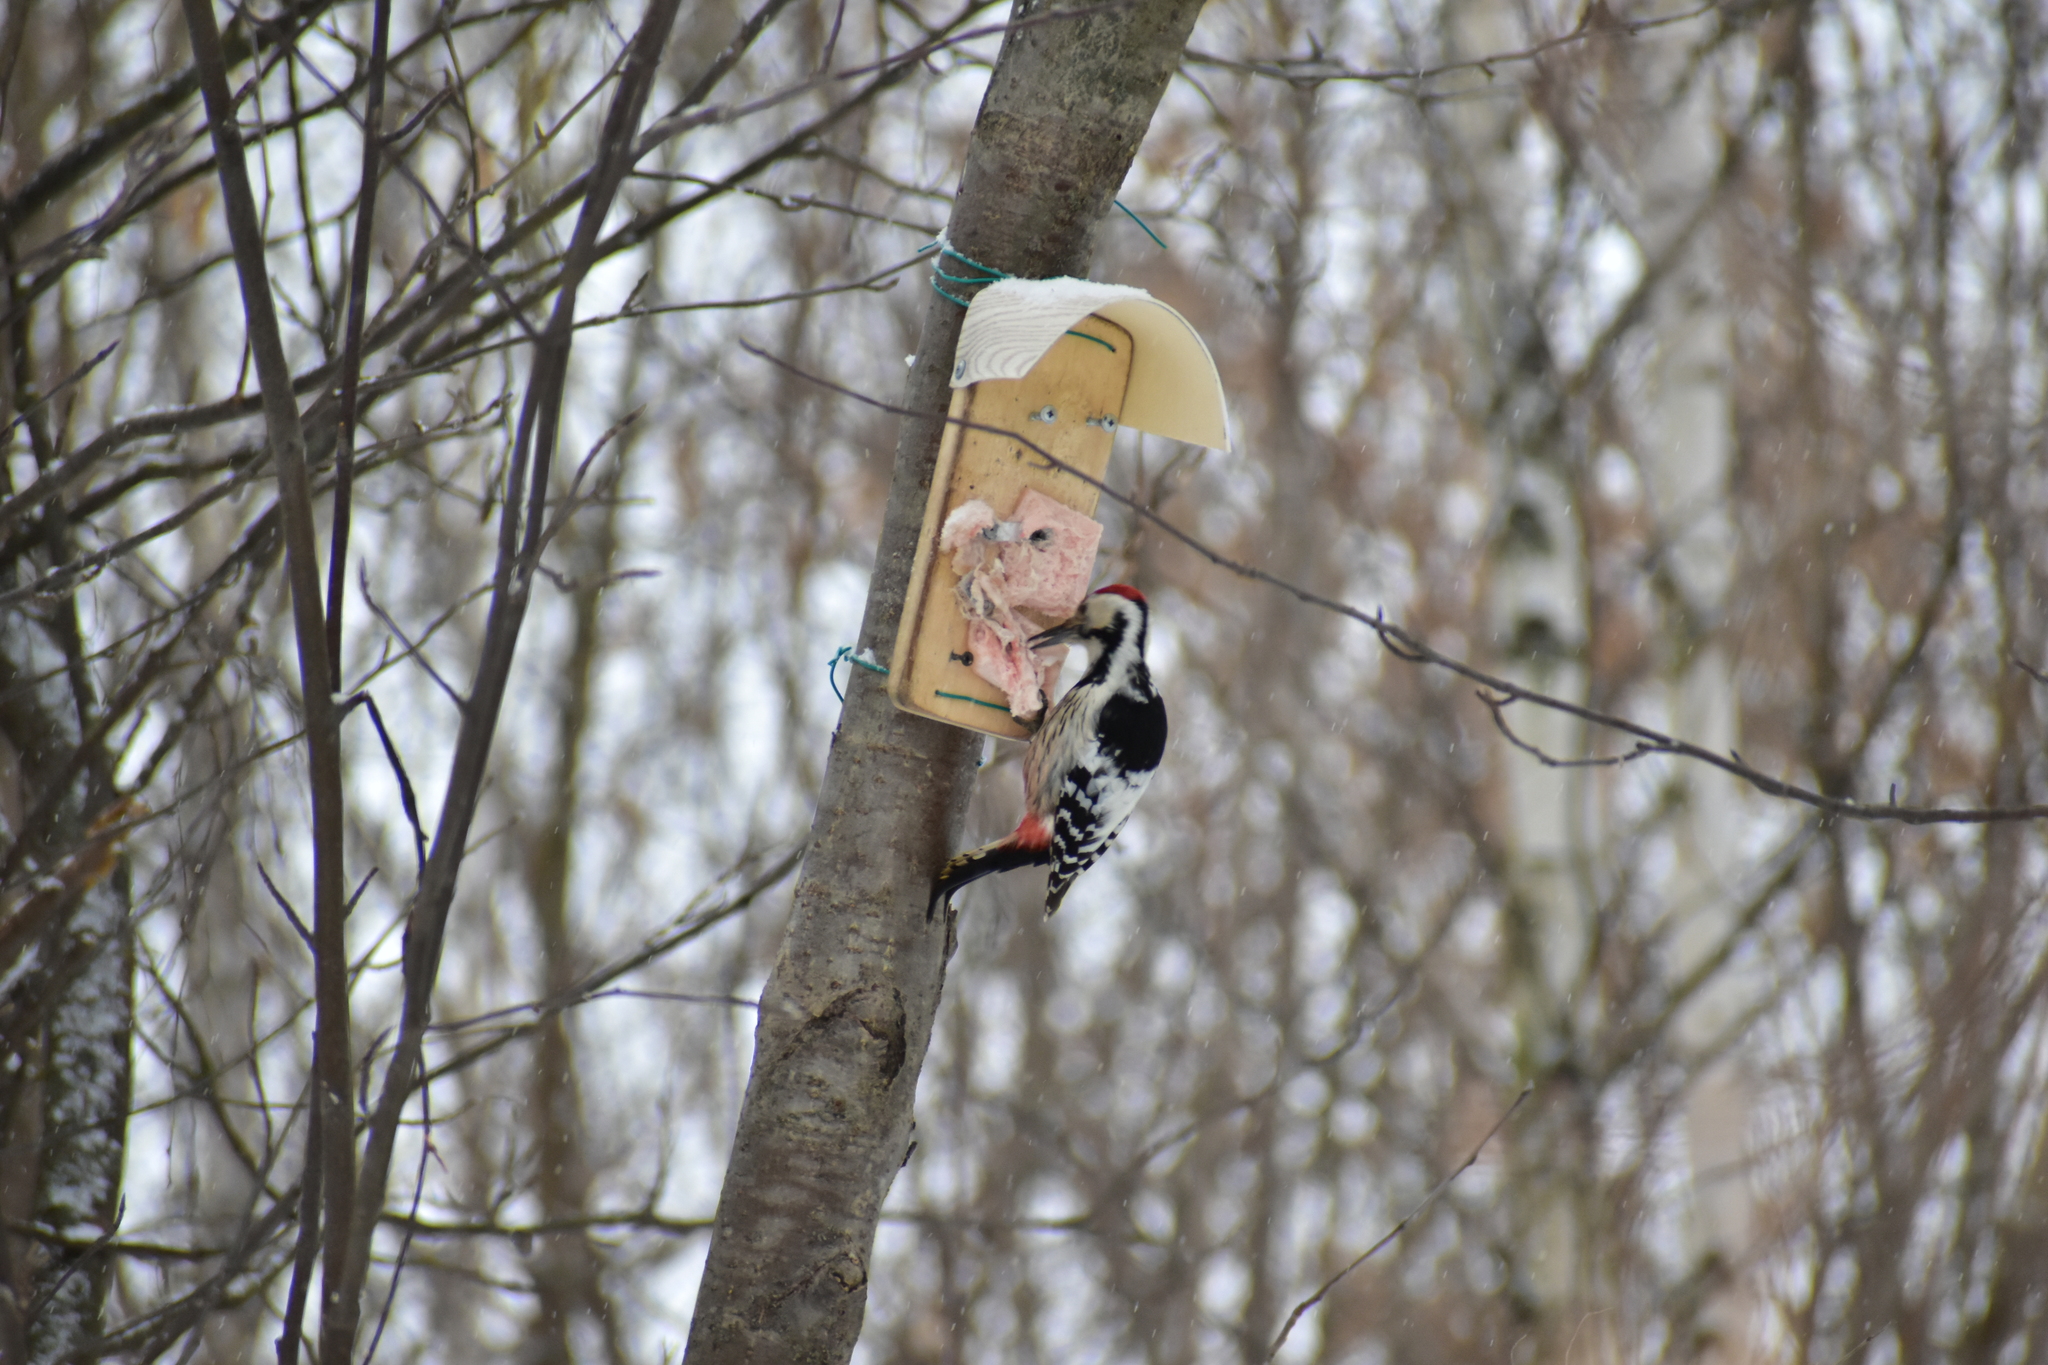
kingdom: Animalia
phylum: Chordata
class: Aves
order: Piciformes
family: Picidae
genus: Dendrocopos
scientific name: Dendrocopos leucotos
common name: White-backed woodpecker
